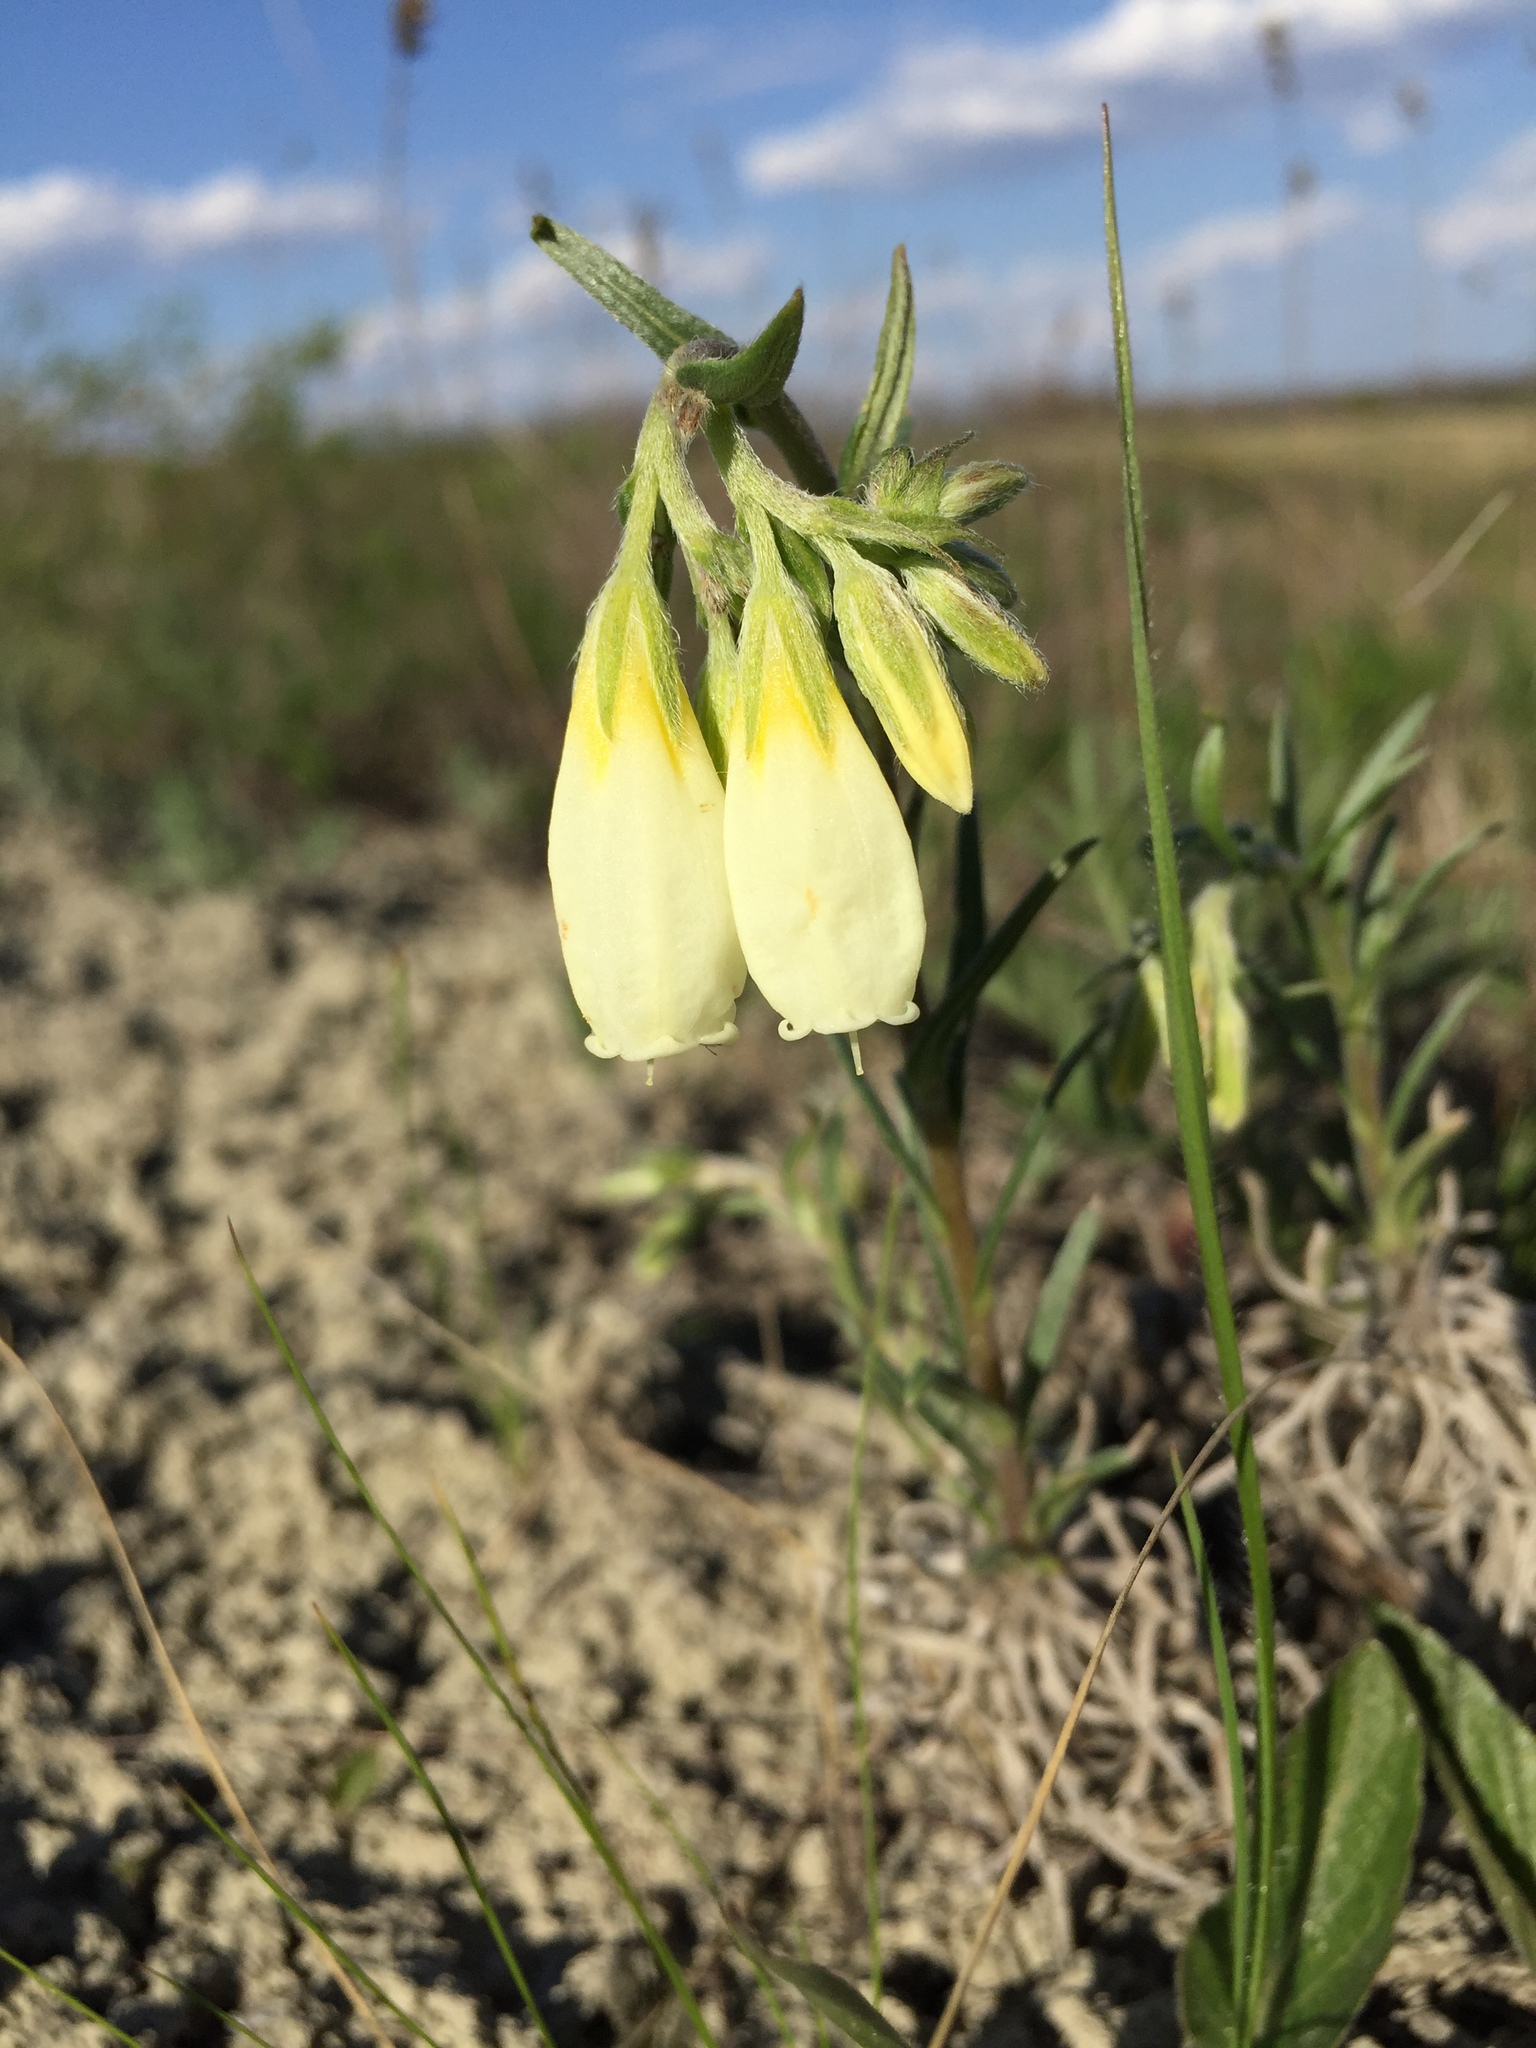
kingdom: Plantae
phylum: Tracheophyta
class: Magnoliopsida
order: Boraginales
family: Boraginaceae
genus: Onosma
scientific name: Onosma simplicissima
